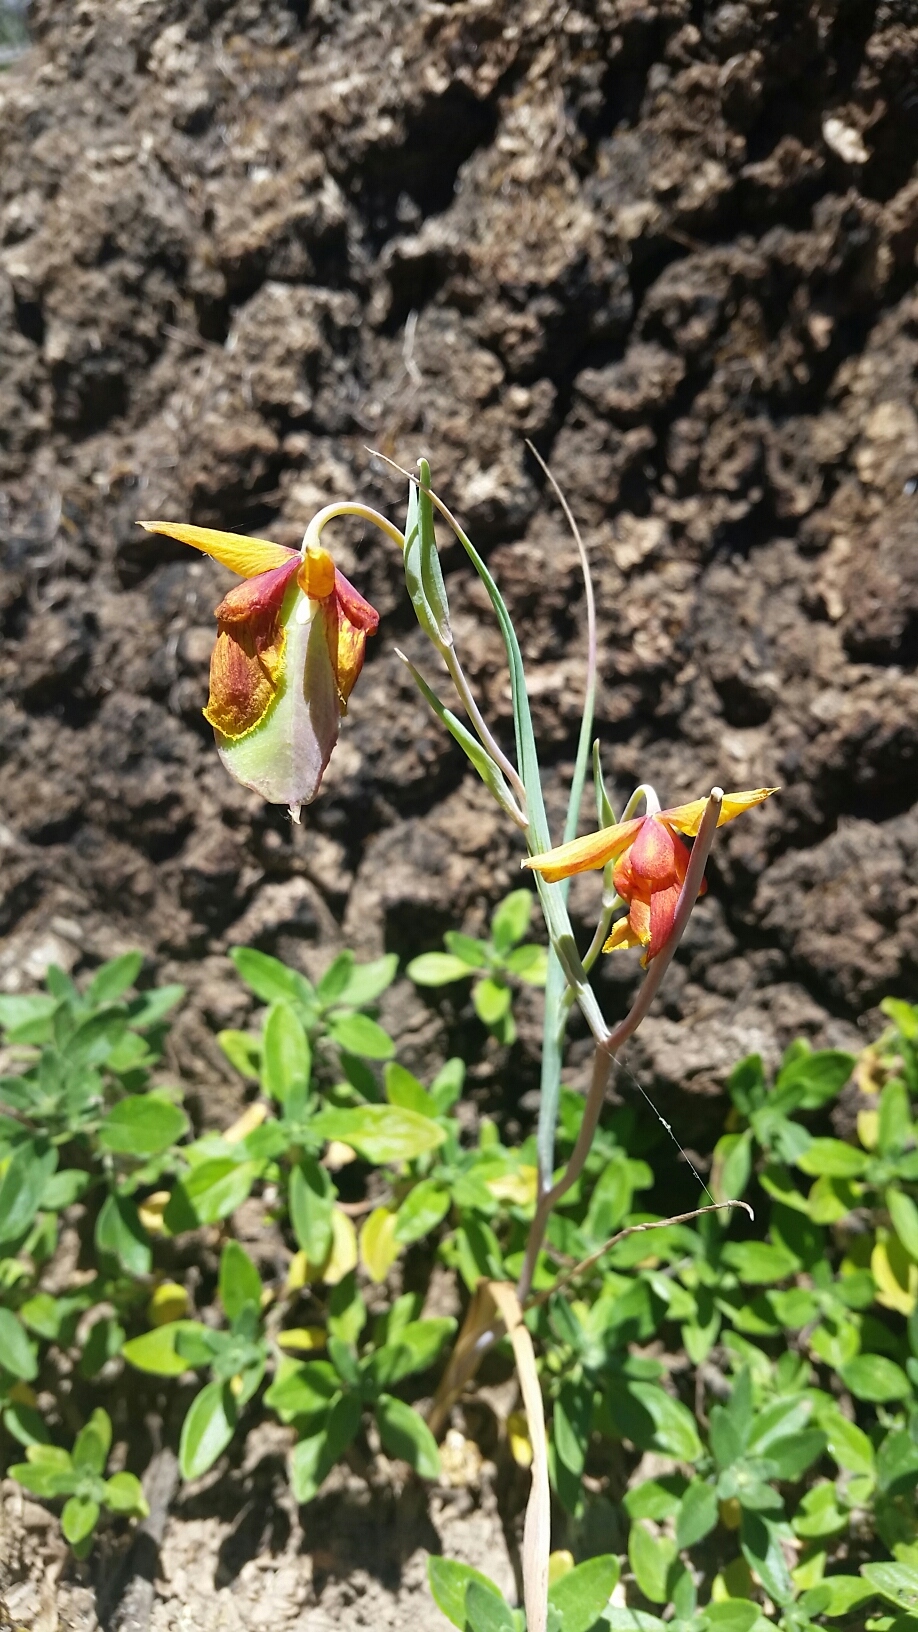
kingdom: Plantae
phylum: Tracheophyta
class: Liliopsida
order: Liliales
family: Liliaceae
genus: Calochortus
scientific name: Calochortus amabilis
